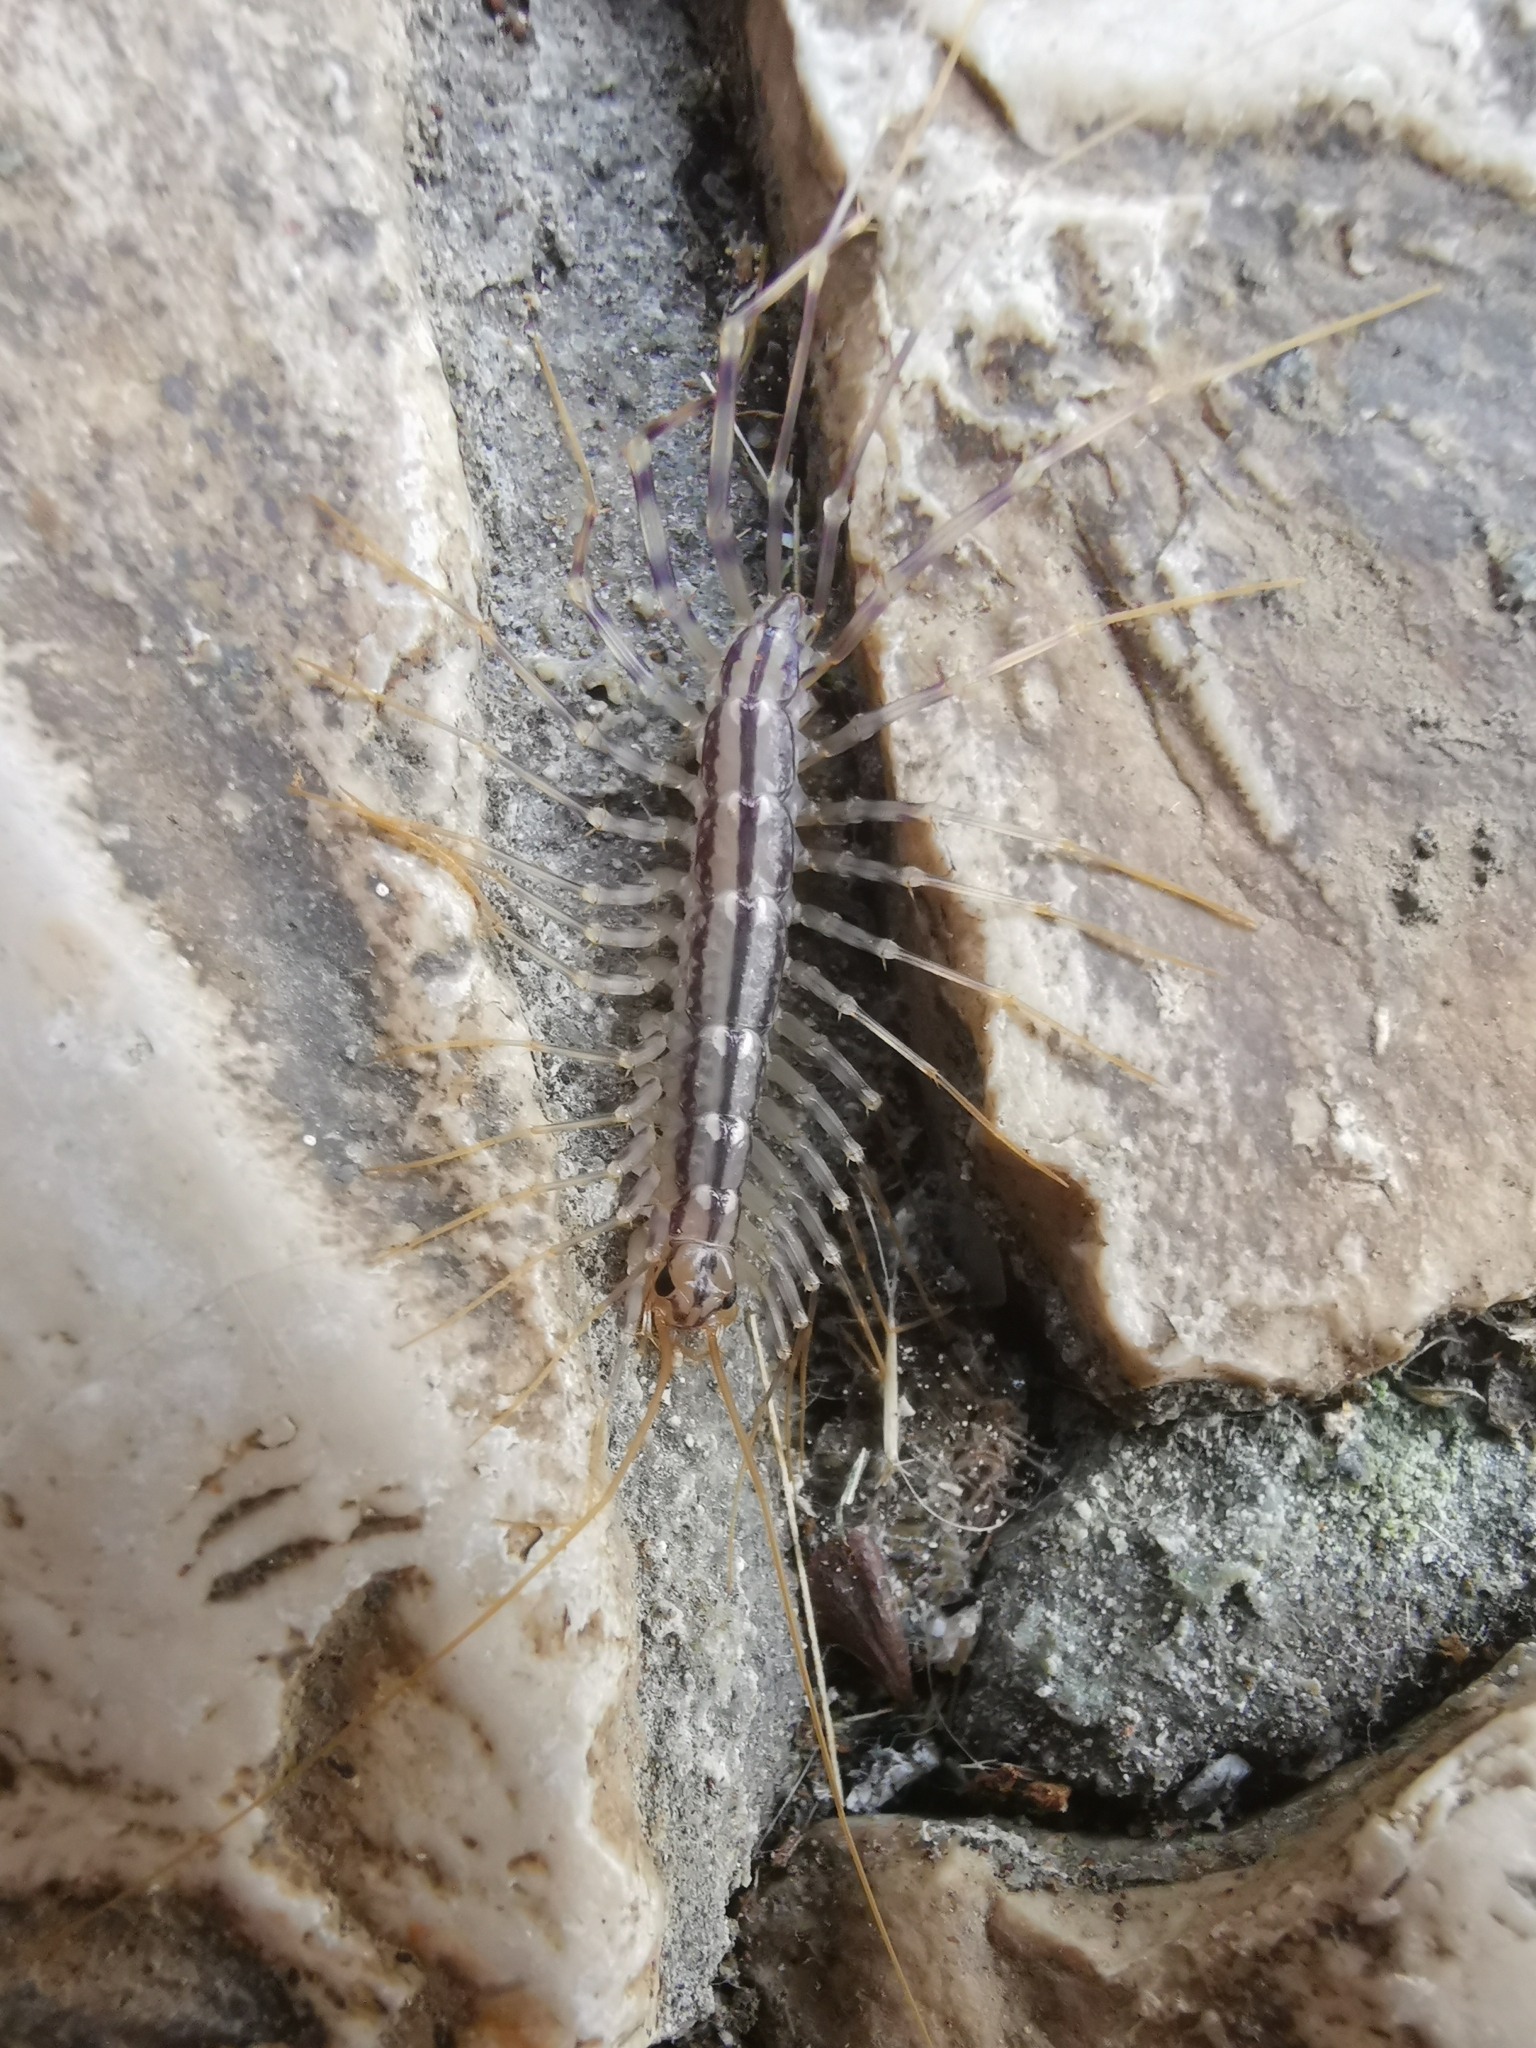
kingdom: Animalia
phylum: Arthropoda
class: Chilopoda
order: Scutigeromorpha
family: Scutigeridae
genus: Scutigera
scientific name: Scutigera coleoptrata
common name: House centipede
